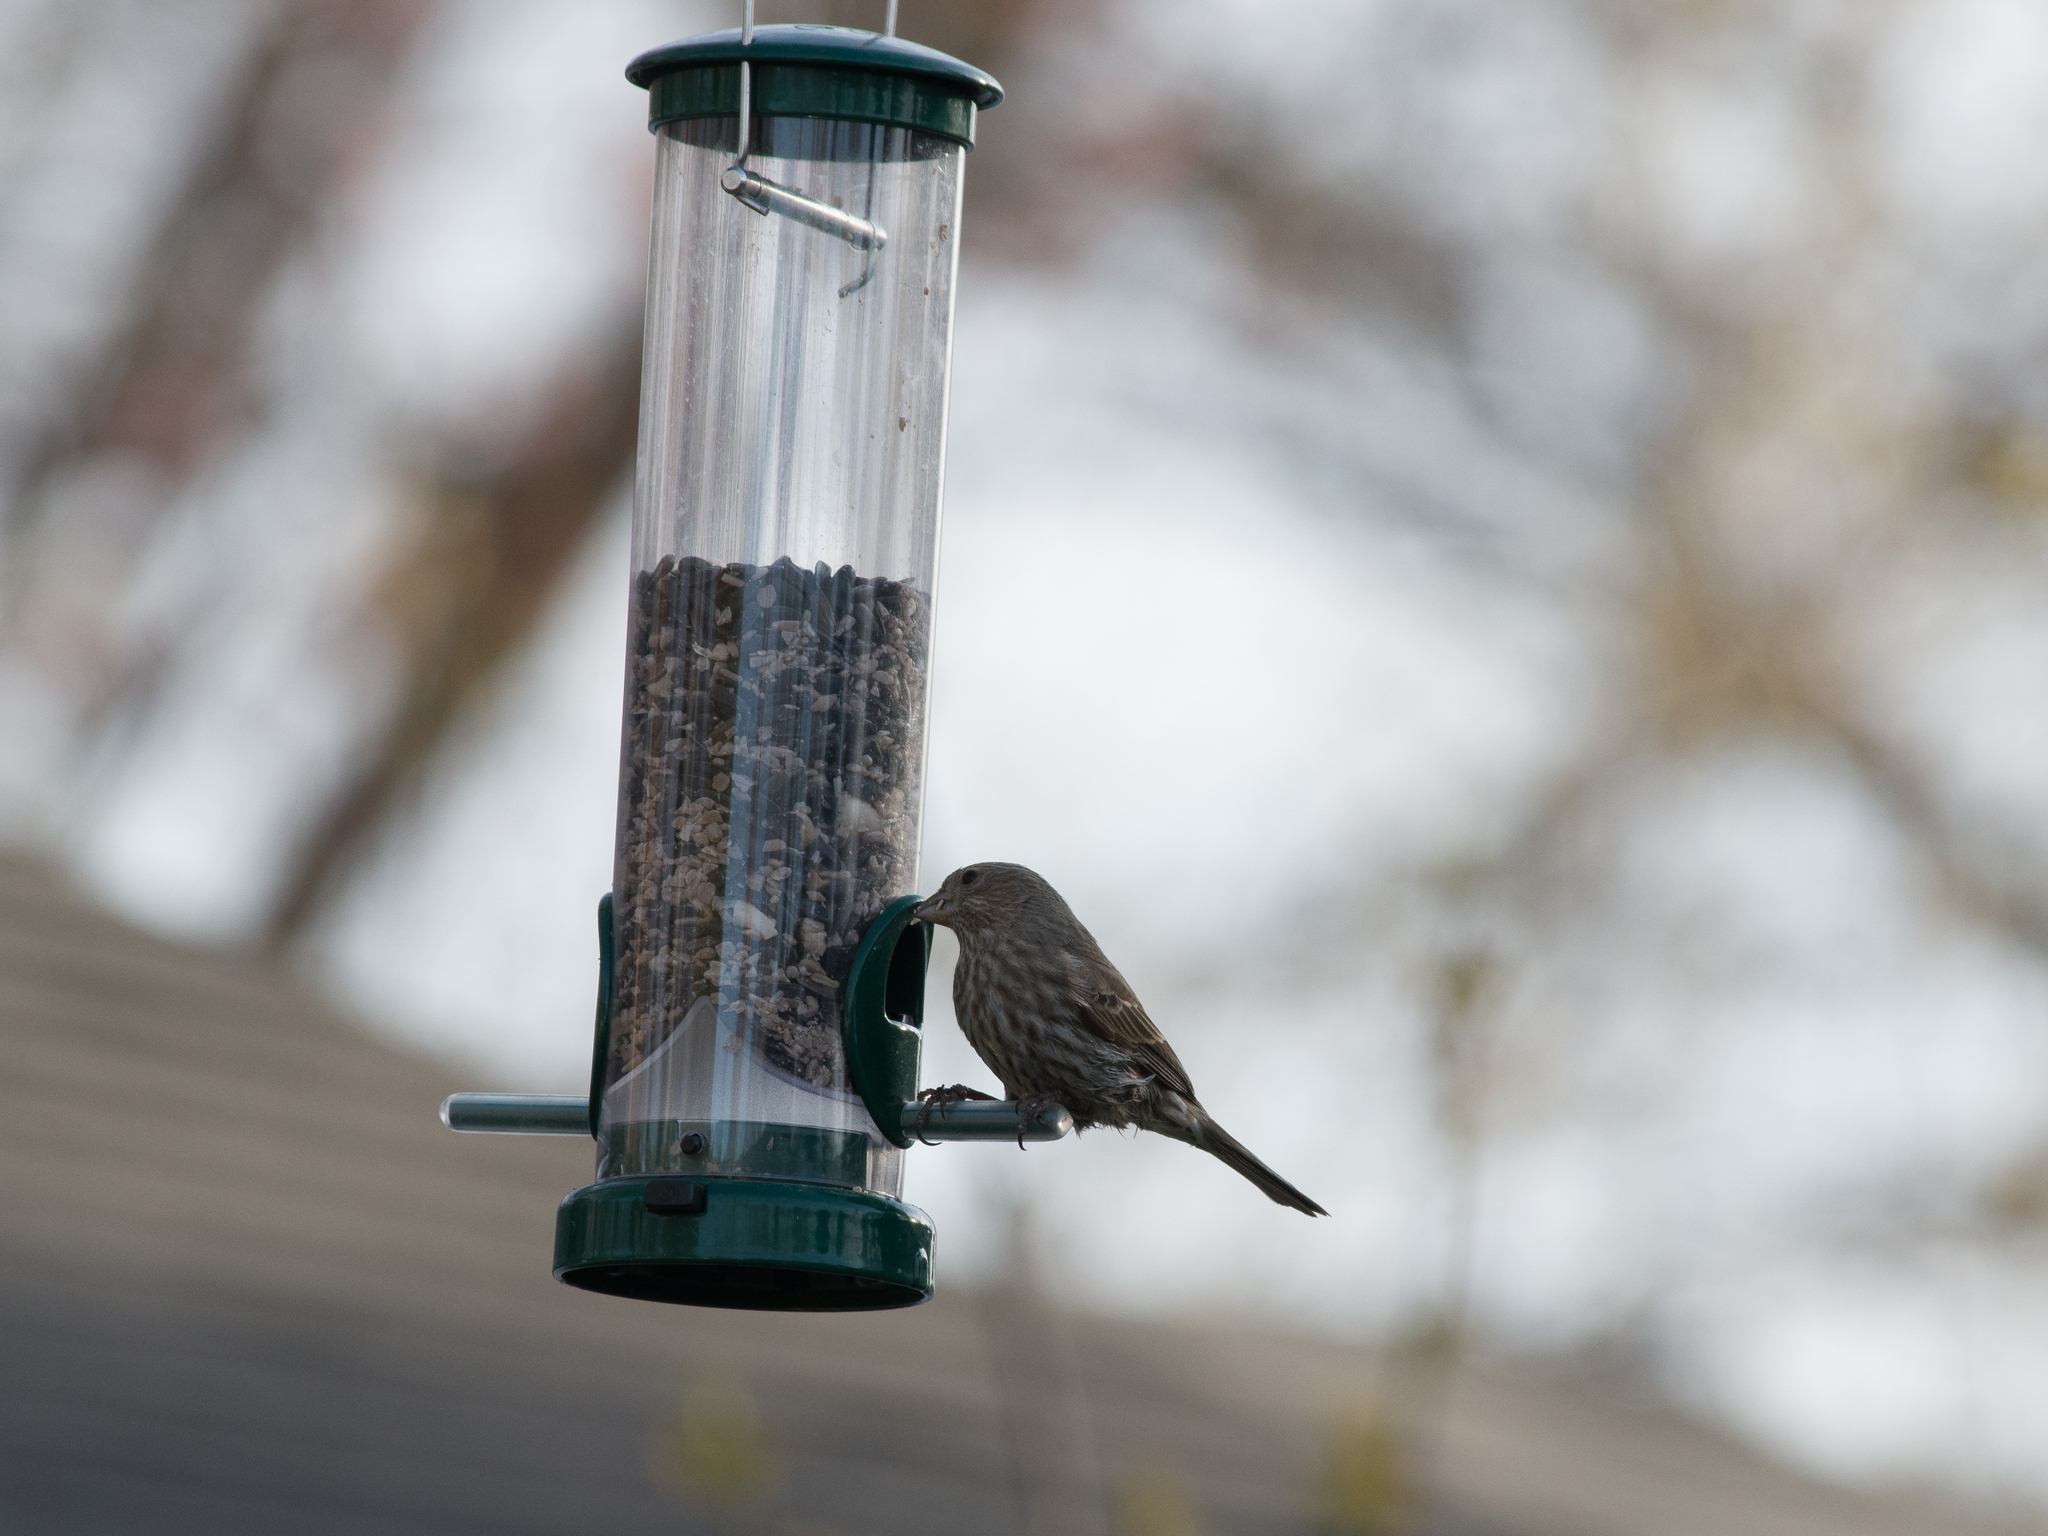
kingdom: Animalia
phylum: Chordata
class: Aves
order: Passeriformes
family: Fringillidae
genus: Haemorhous
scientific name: Haemorhous mexicanus
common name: House finch
